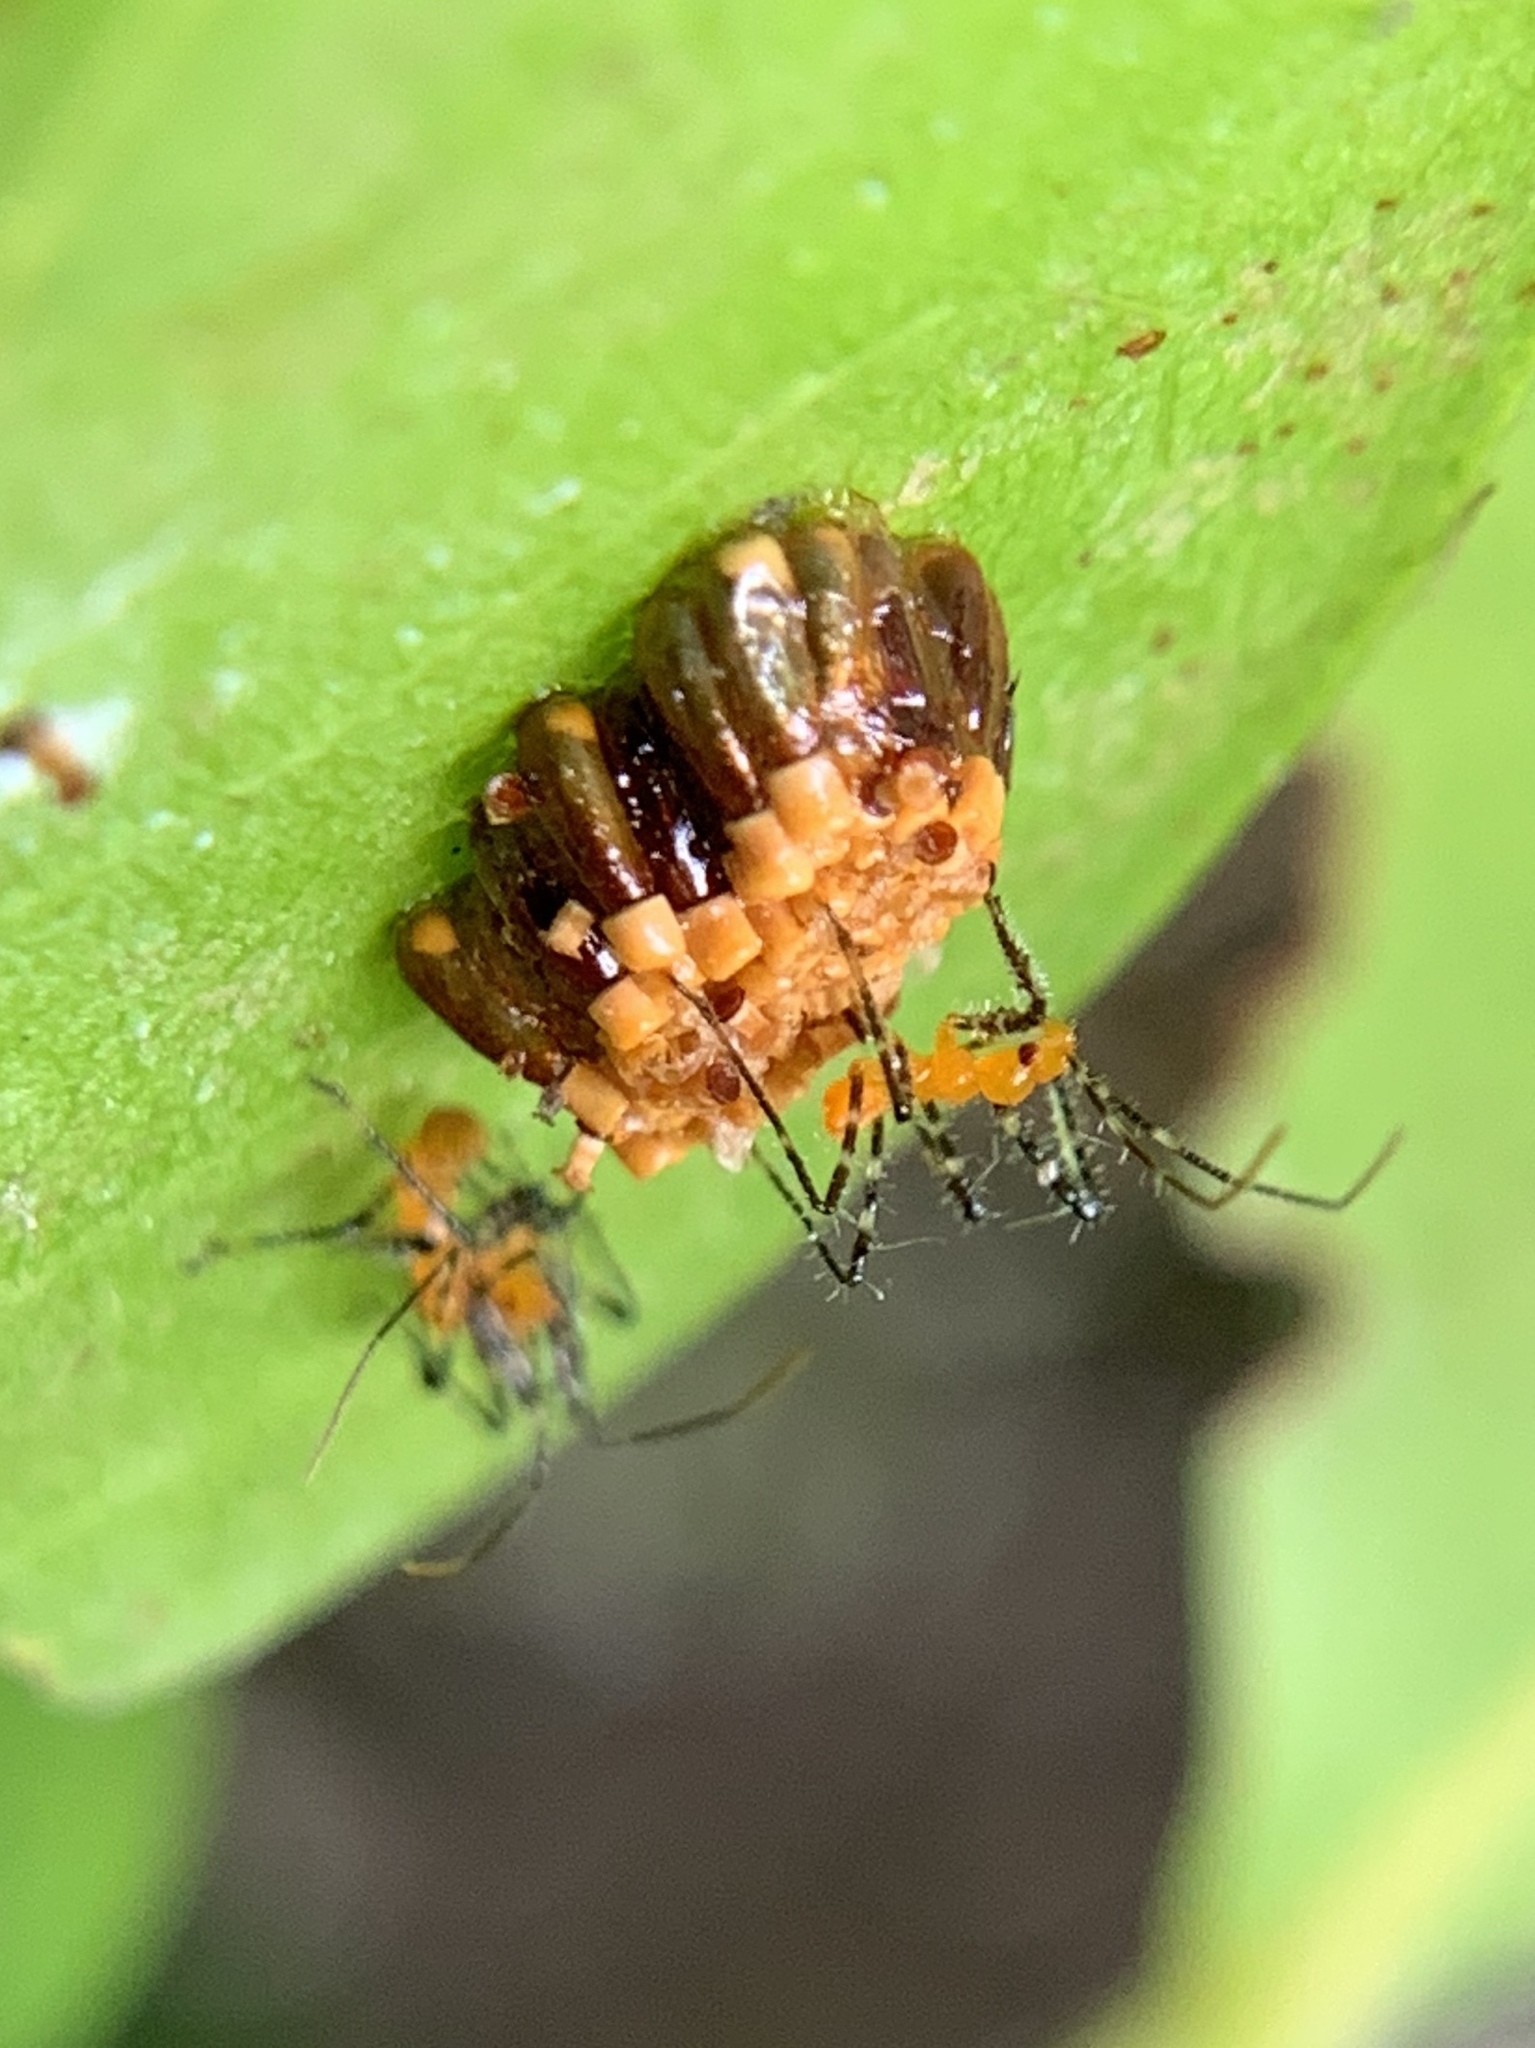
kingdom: Animalia
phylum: Arthropoda
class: Insecta
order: Hemiptera
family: Reduviidae
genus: Zelus
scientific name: Zelus longipes
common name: Milkweed assassin bug
